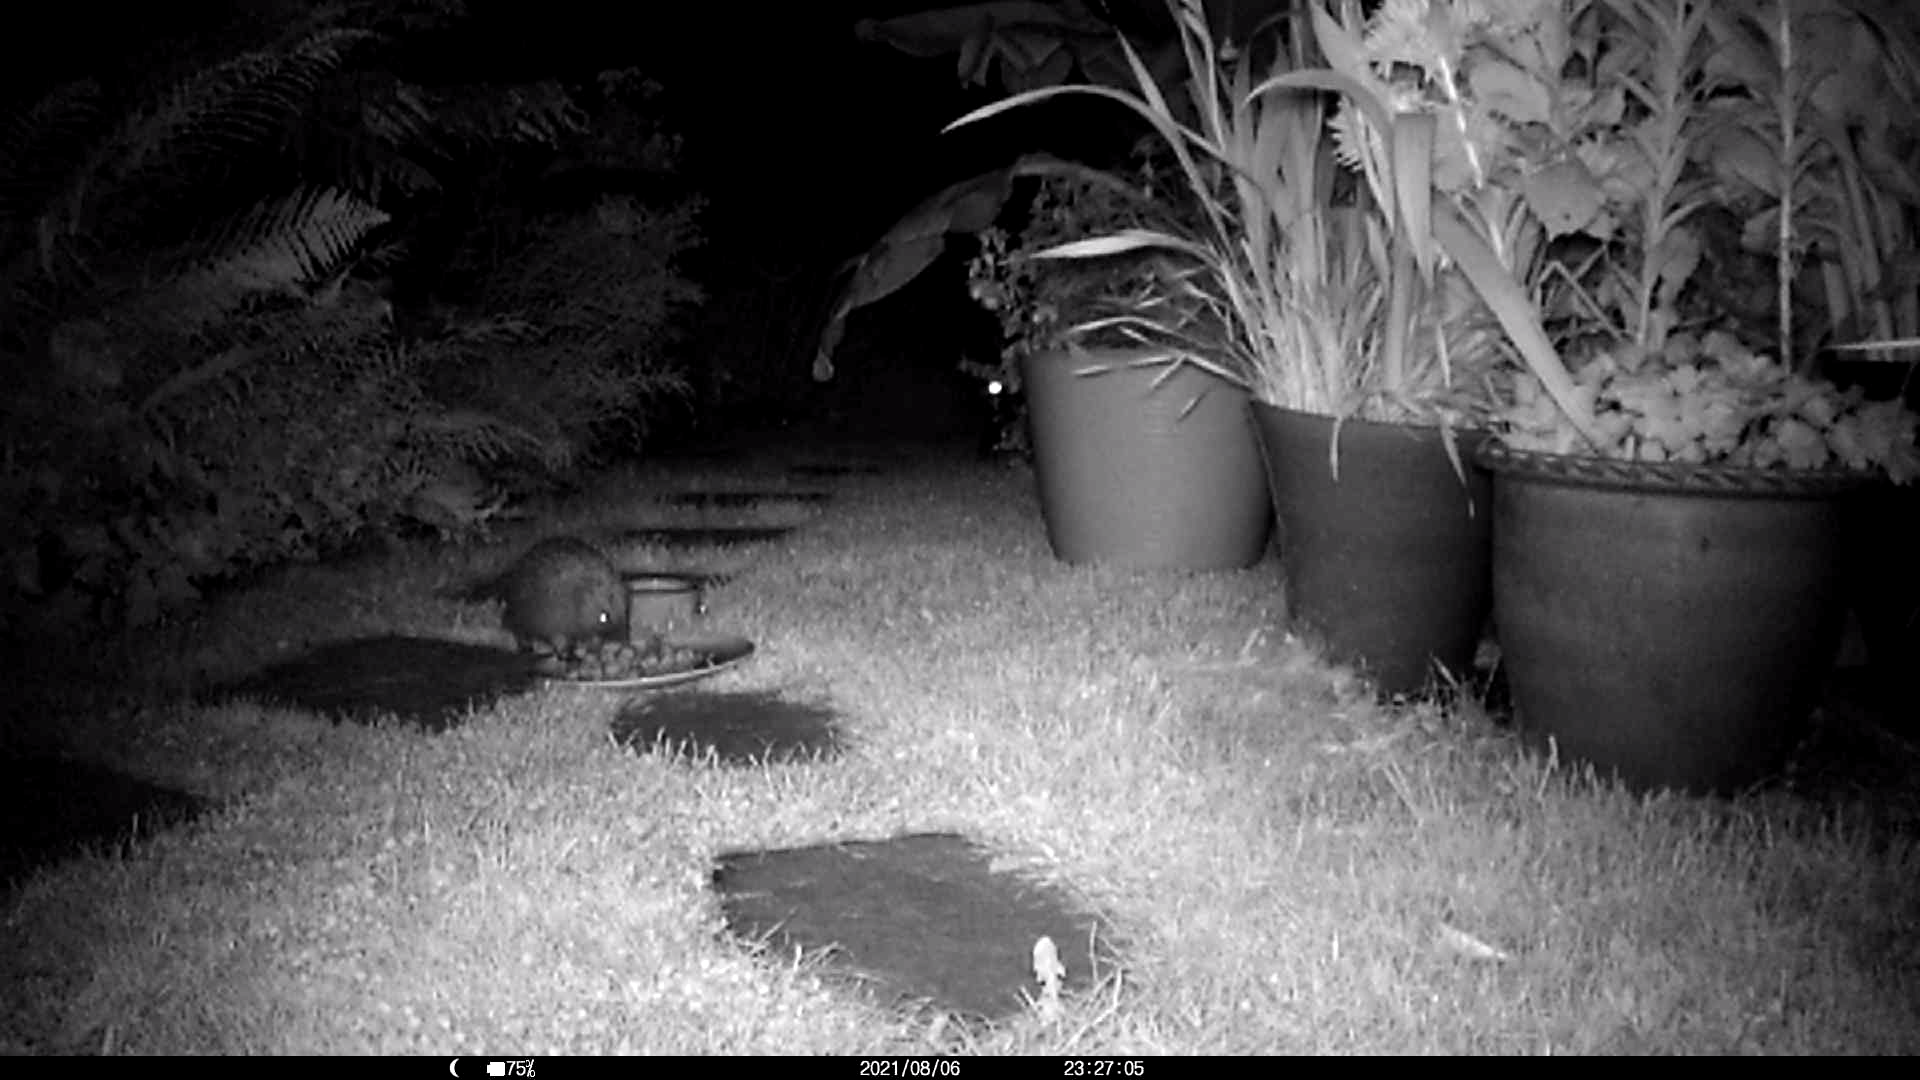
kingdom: Animalia
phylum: Chordata
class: Mammalia
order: Erinaceomorpha
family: Erinaceidae
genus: Erinaceus
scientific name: Erinaceus europaeus
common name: West european hedgehog
